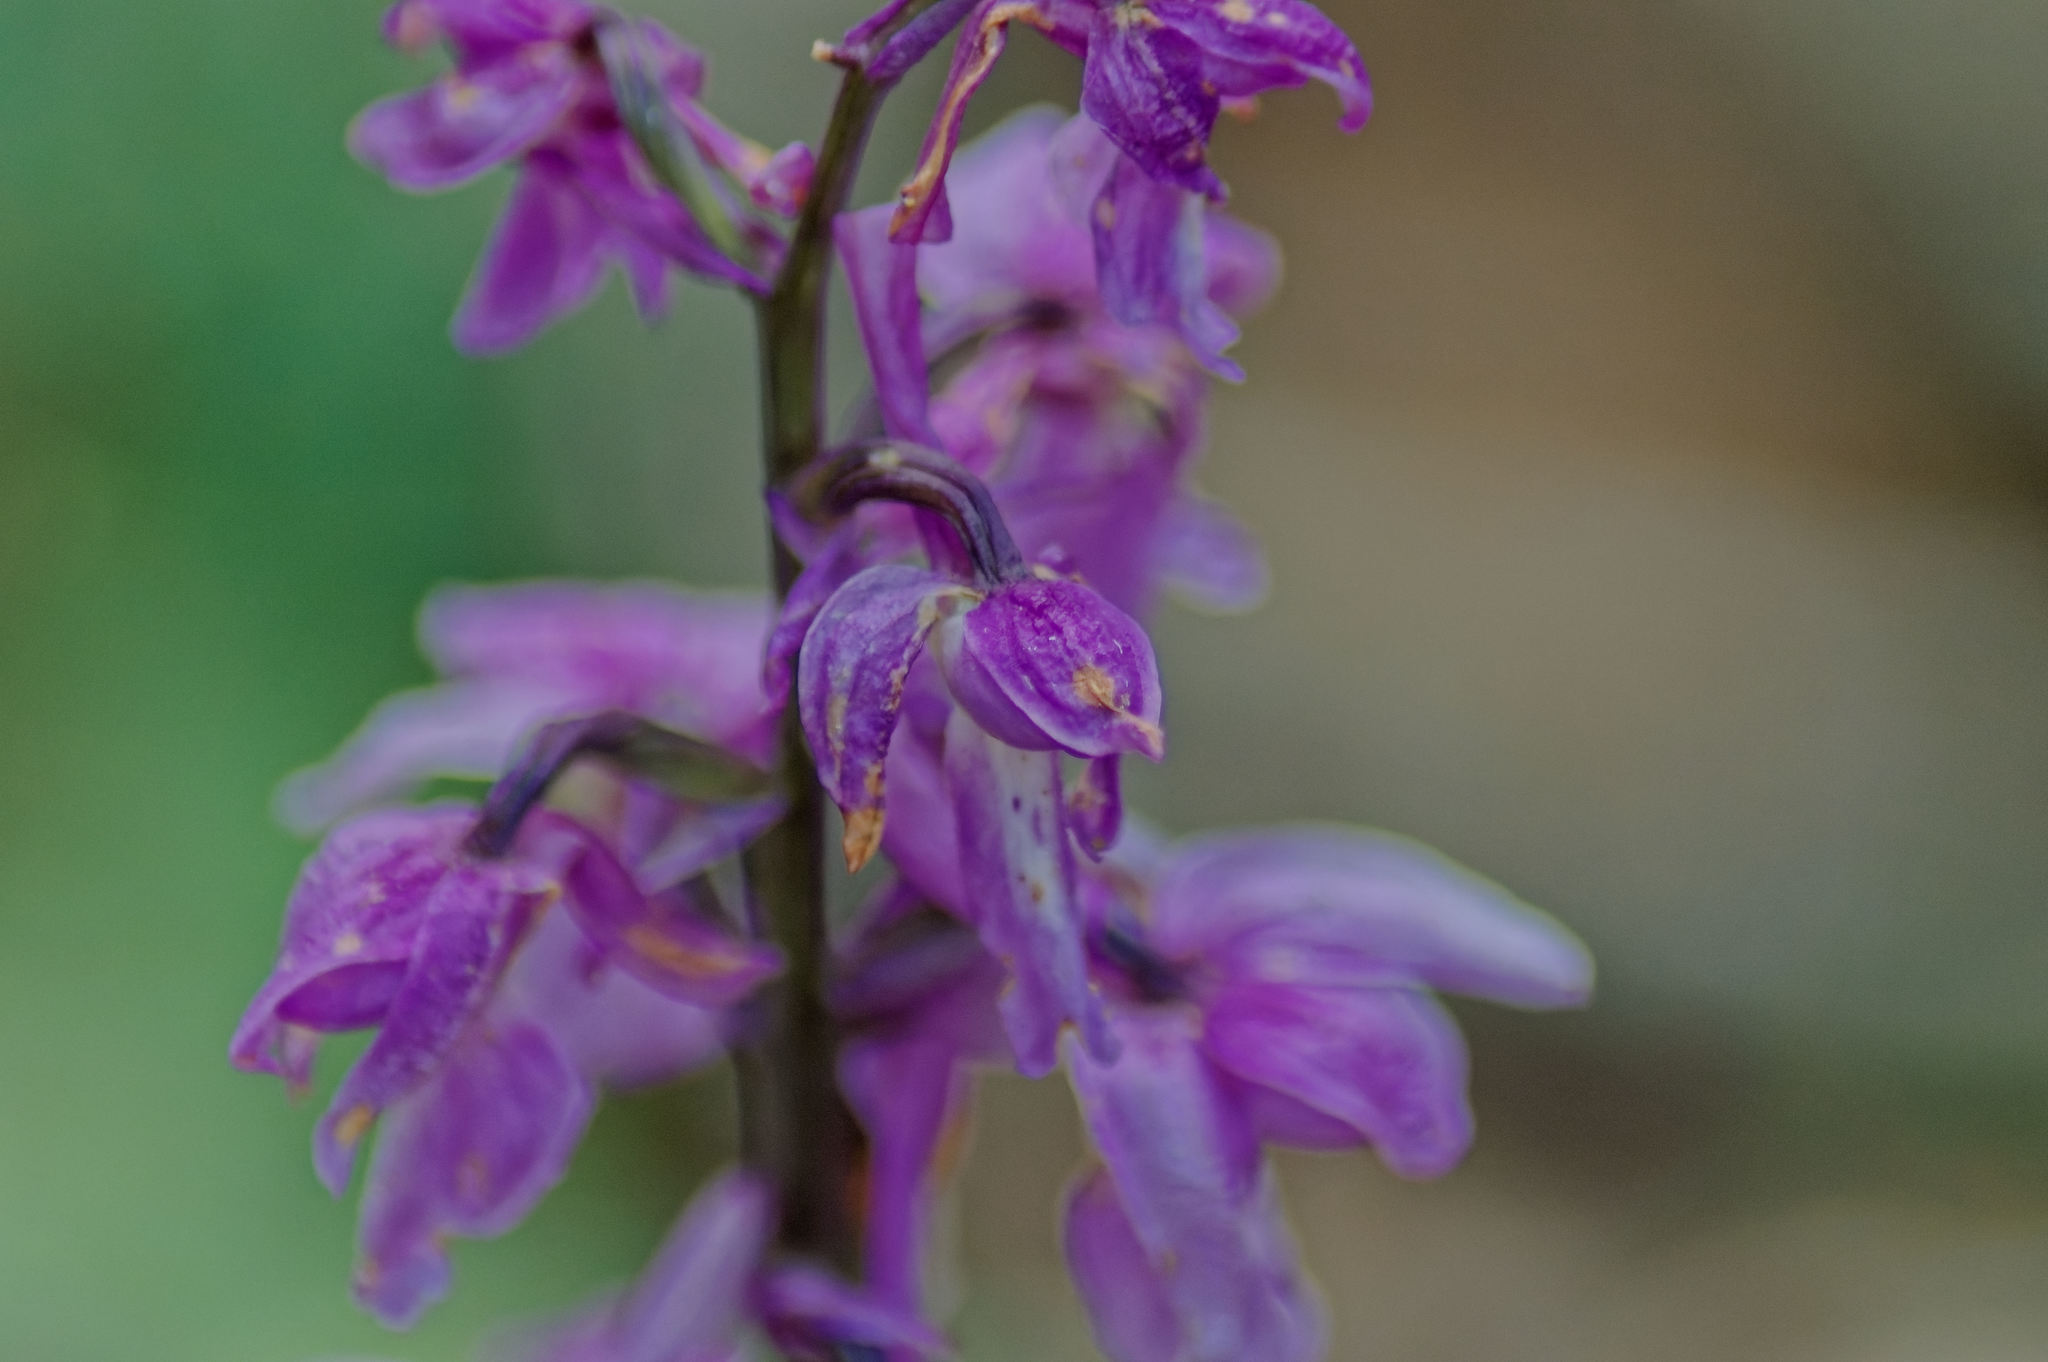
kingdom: Plantae
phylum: Tracheophyta
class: Liliopsida
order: Asparagales
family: Orchidaceae
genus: Orchis
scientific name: Orchis mascula
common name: Early-purple orchid
